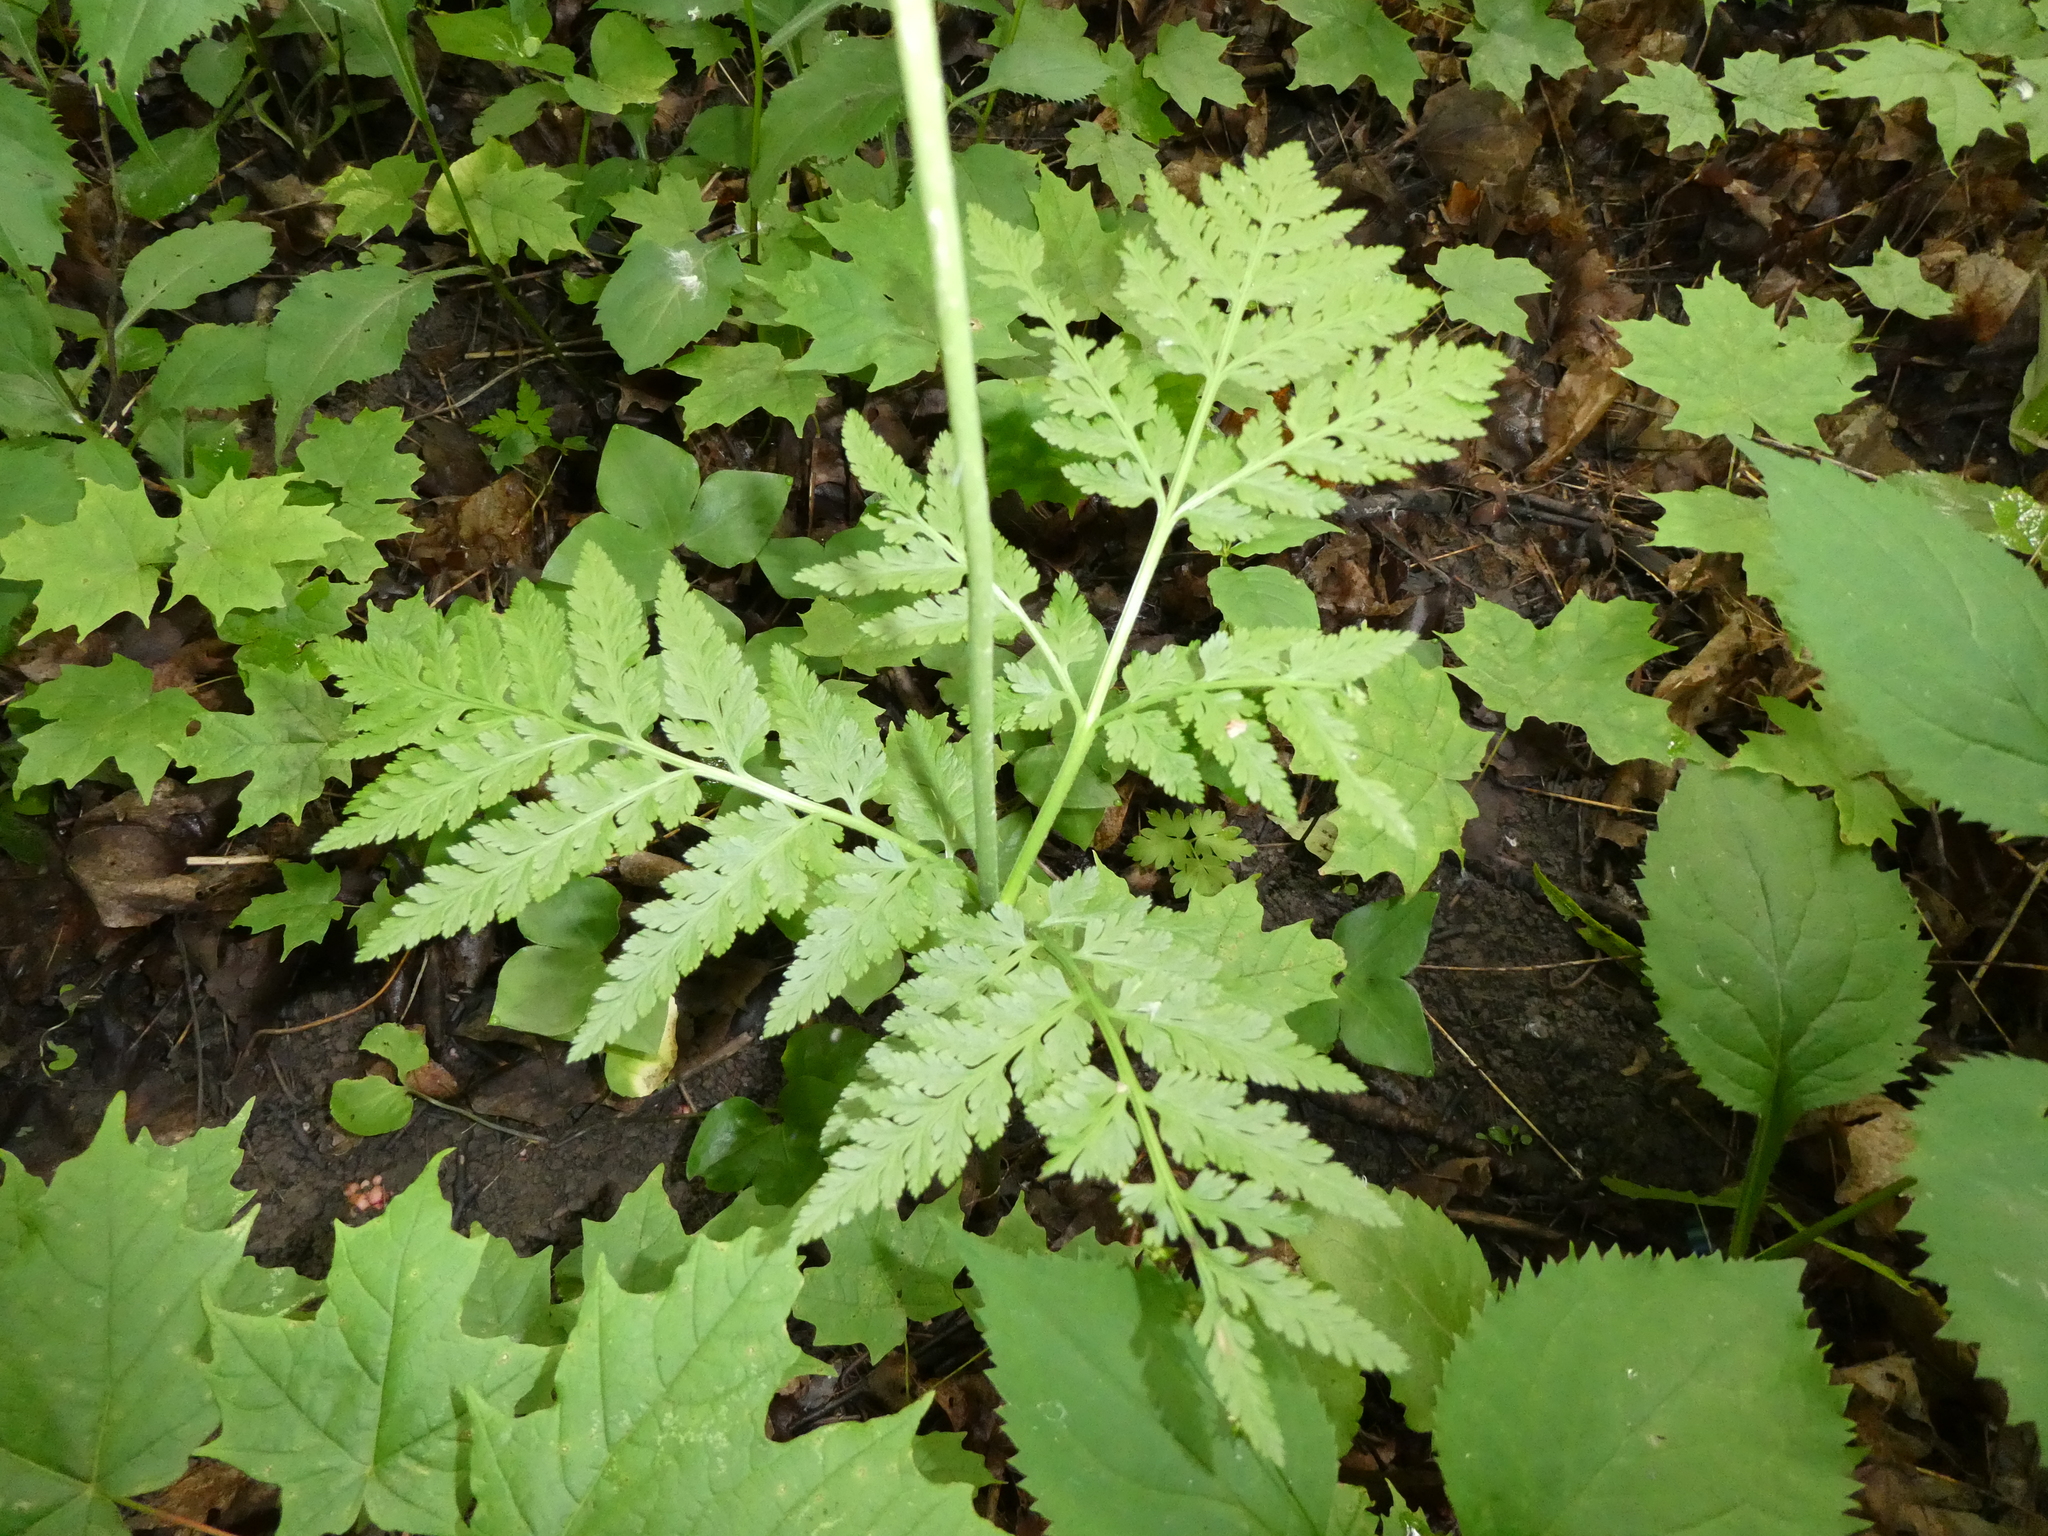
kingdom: Plantae
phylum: Tracheophyta
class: Polypodiopsida
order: Ophioglossales
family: Ophioglossaceae
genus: Botrypus
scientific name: Botrypus virginianus
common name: Common grapefern
